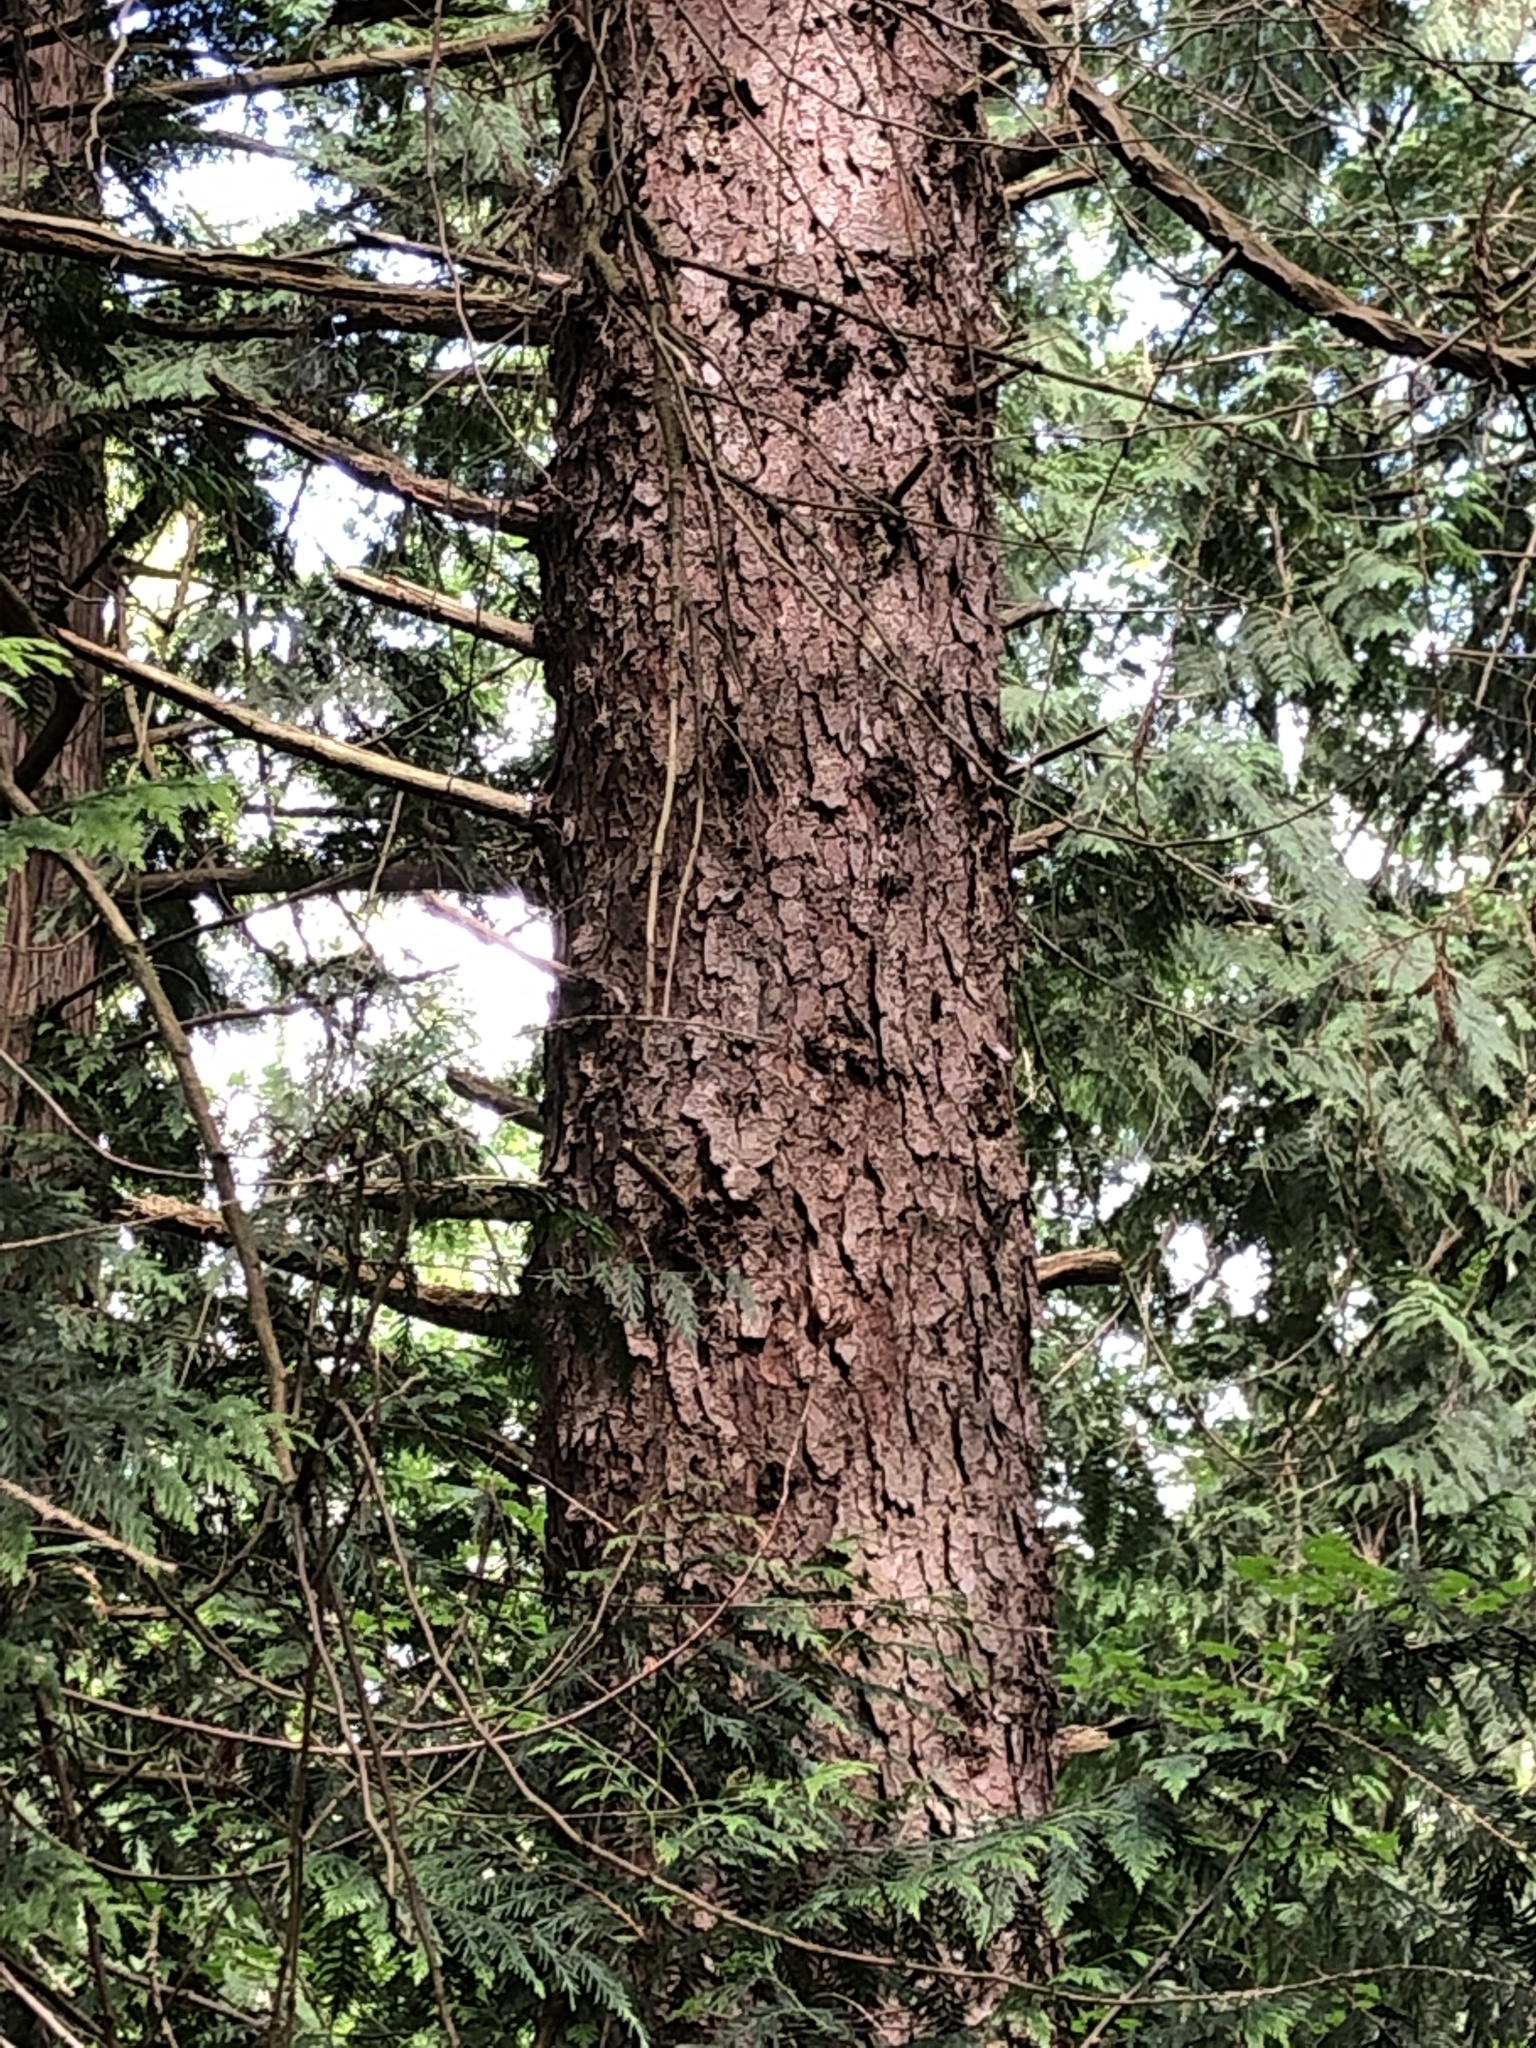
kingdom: Plantae
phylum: Tracheophyta
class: Pinopsida
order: Pinales
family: Pinaceae
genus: Picea
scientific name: Picea sitchensis
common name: Sitka spruce
